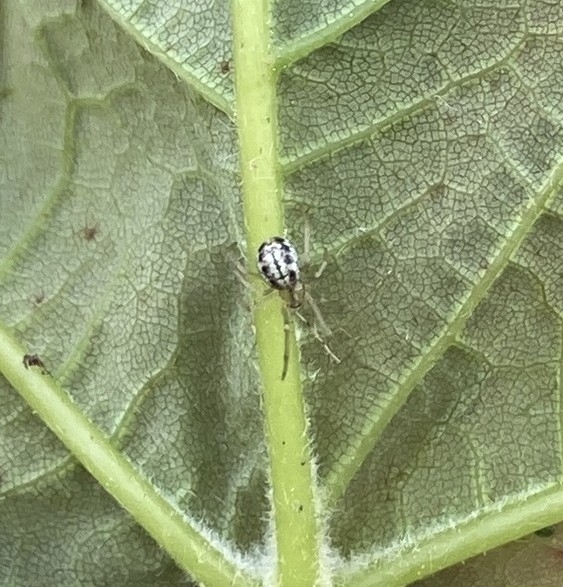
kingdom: Animalia
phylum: Arthropoda
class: Arachnida
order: Araneae
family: Theridiidae
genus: Enoplognatha
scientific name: Enoplognatha ovata
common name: Common candy-striped spider
